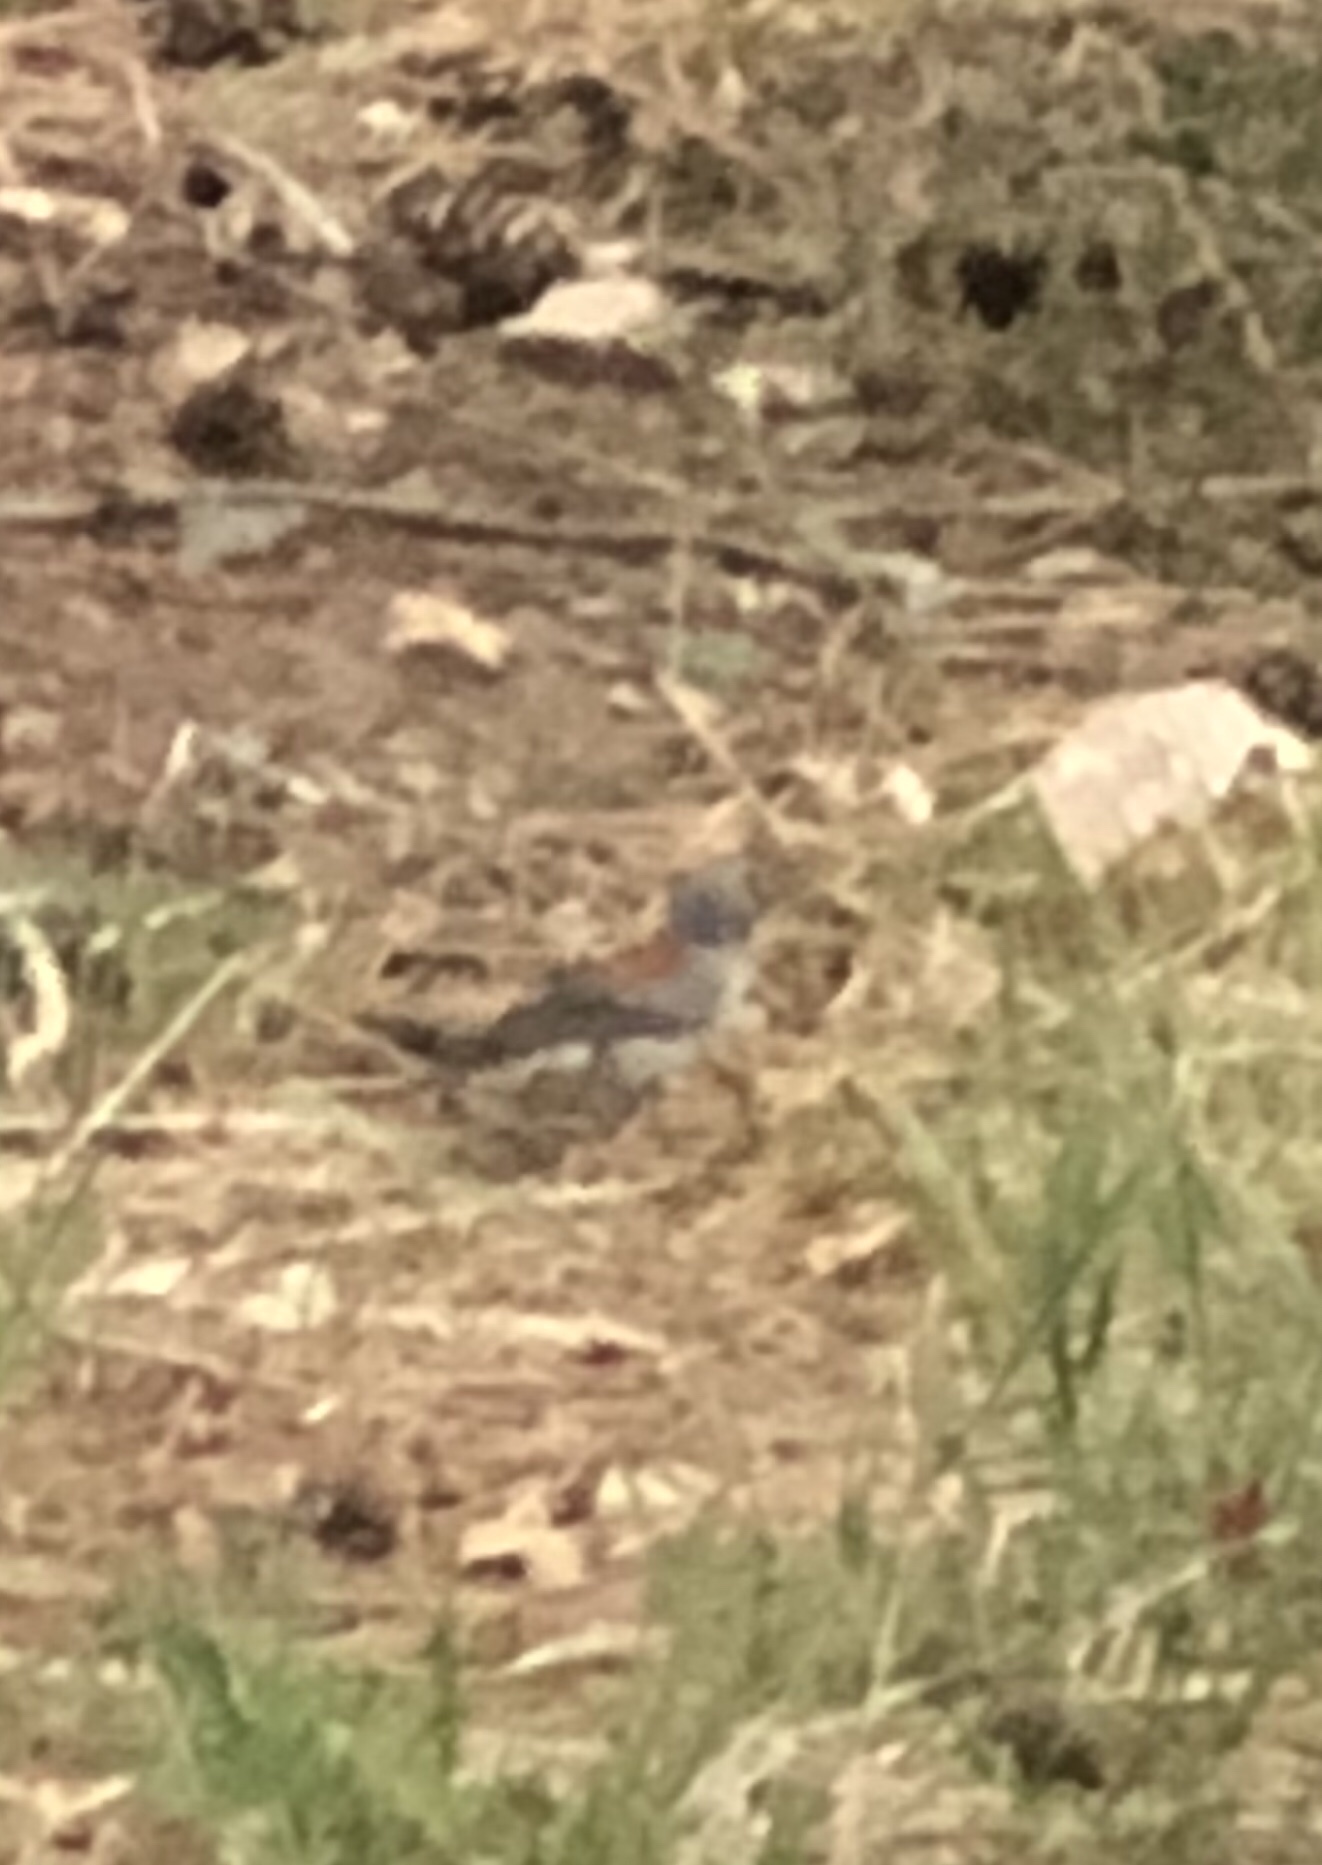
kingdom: Animalia
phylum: Chordata
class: Aves
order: Passeriformes
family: Passerellidae
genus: Junco
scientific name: Junco hyemalis
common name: Dark-eyed junco
